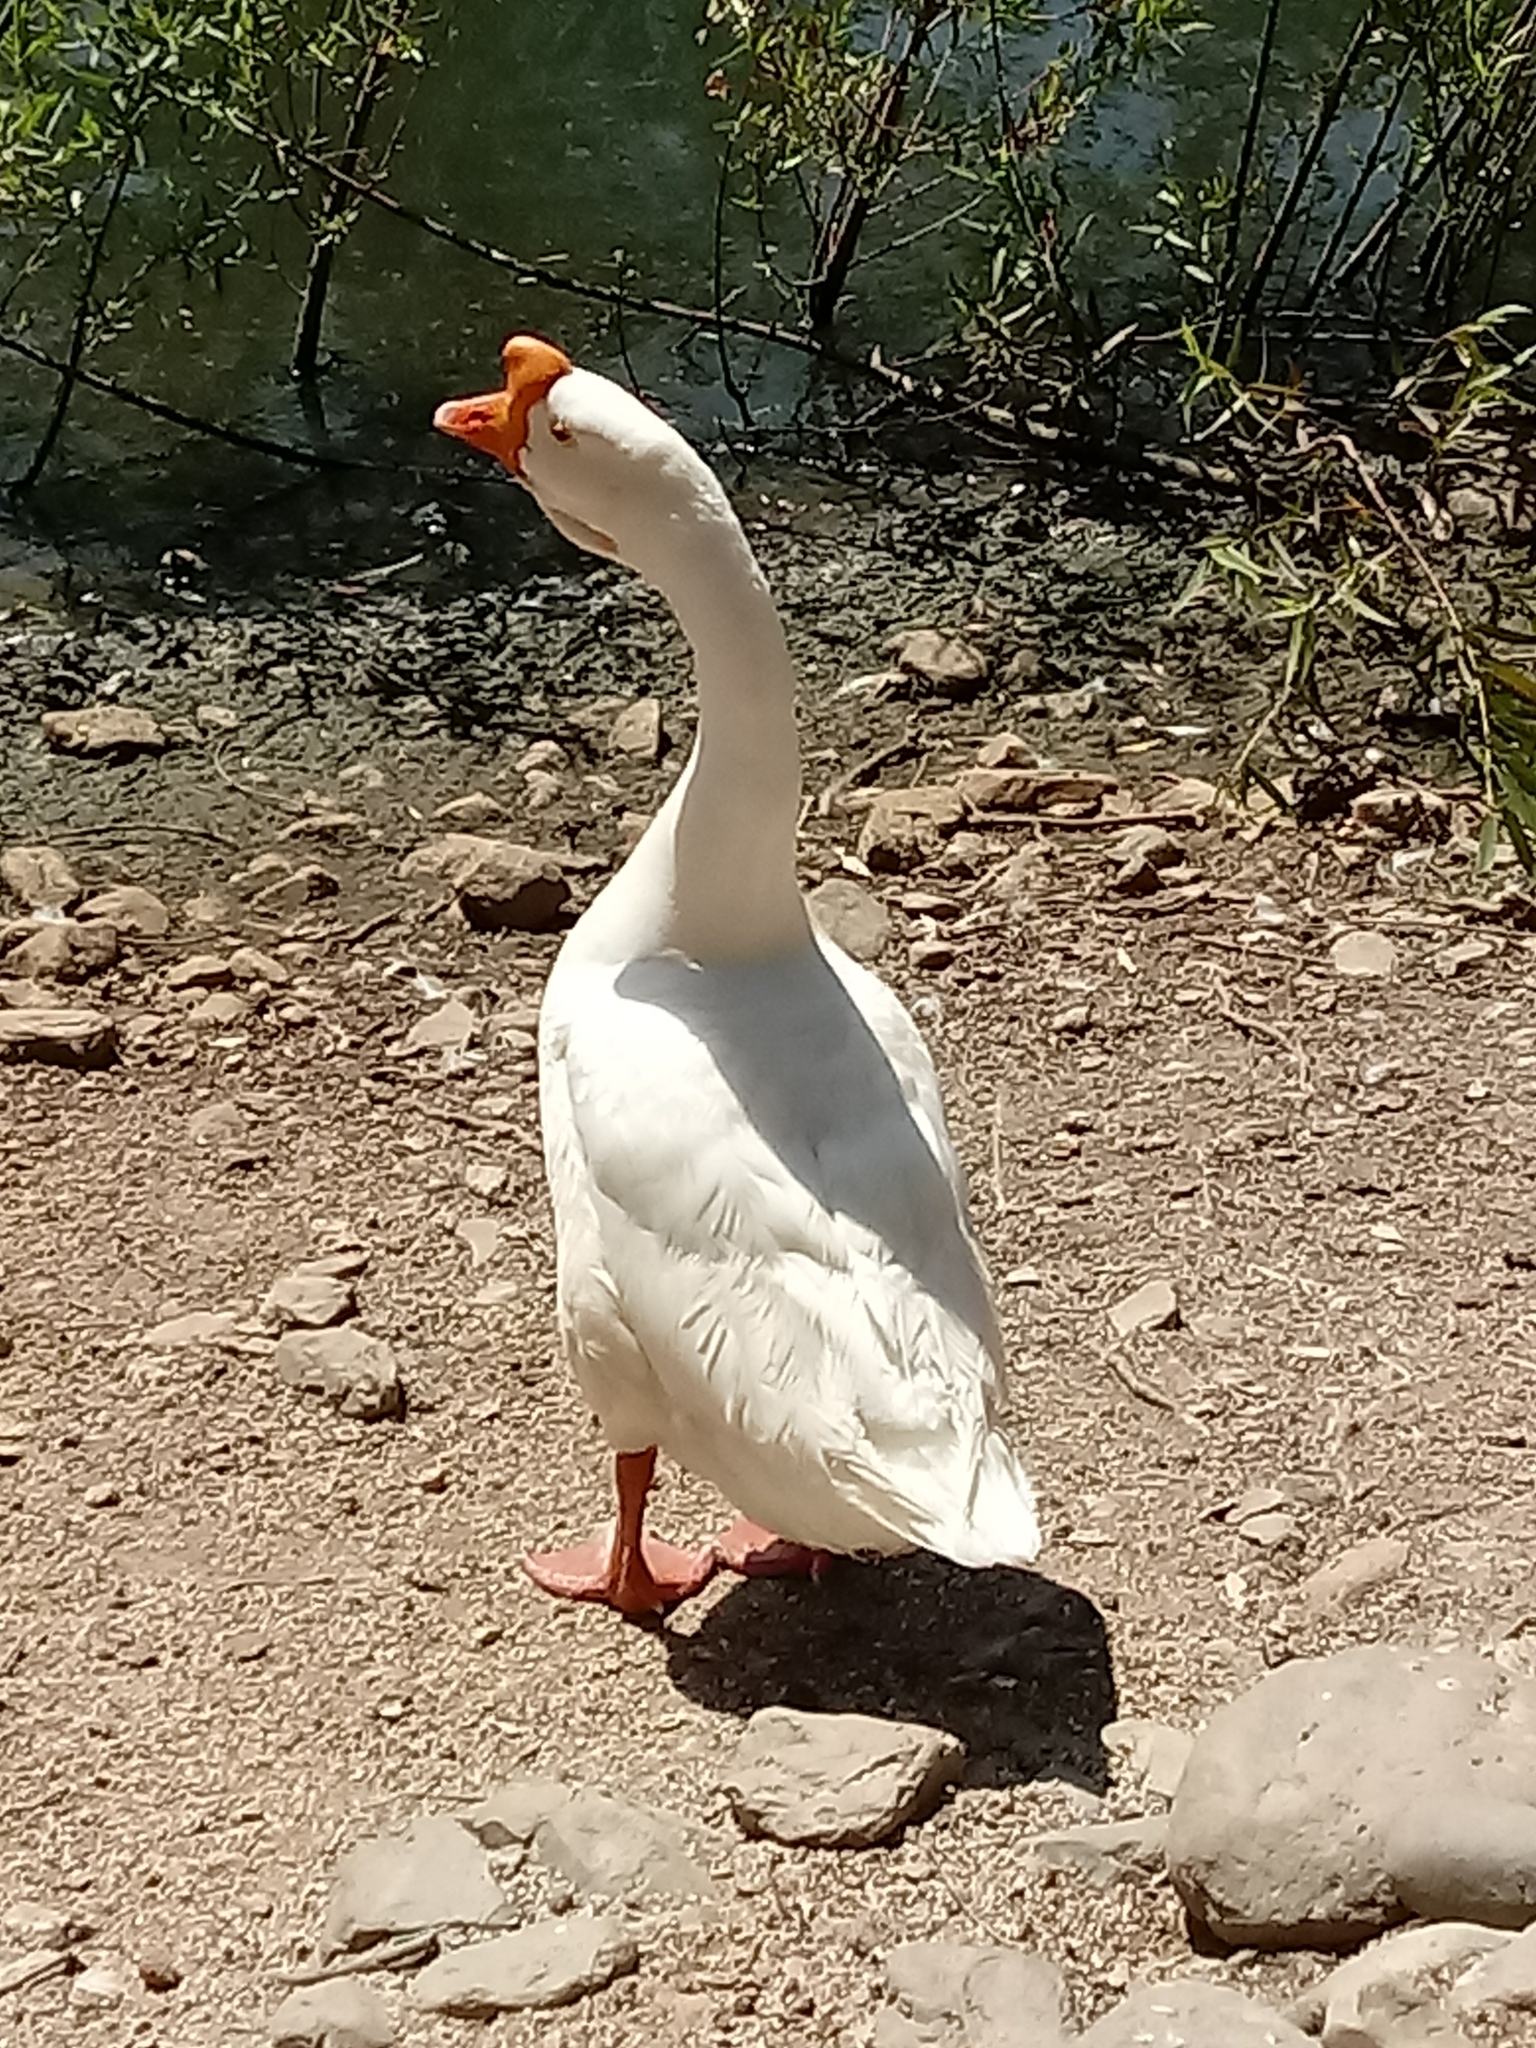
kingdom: Animalia
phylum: Chordata
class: Aves
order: Anseriformes
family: Anatidae
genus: Anser
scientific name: Anser cygnoides
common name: Swan goose
